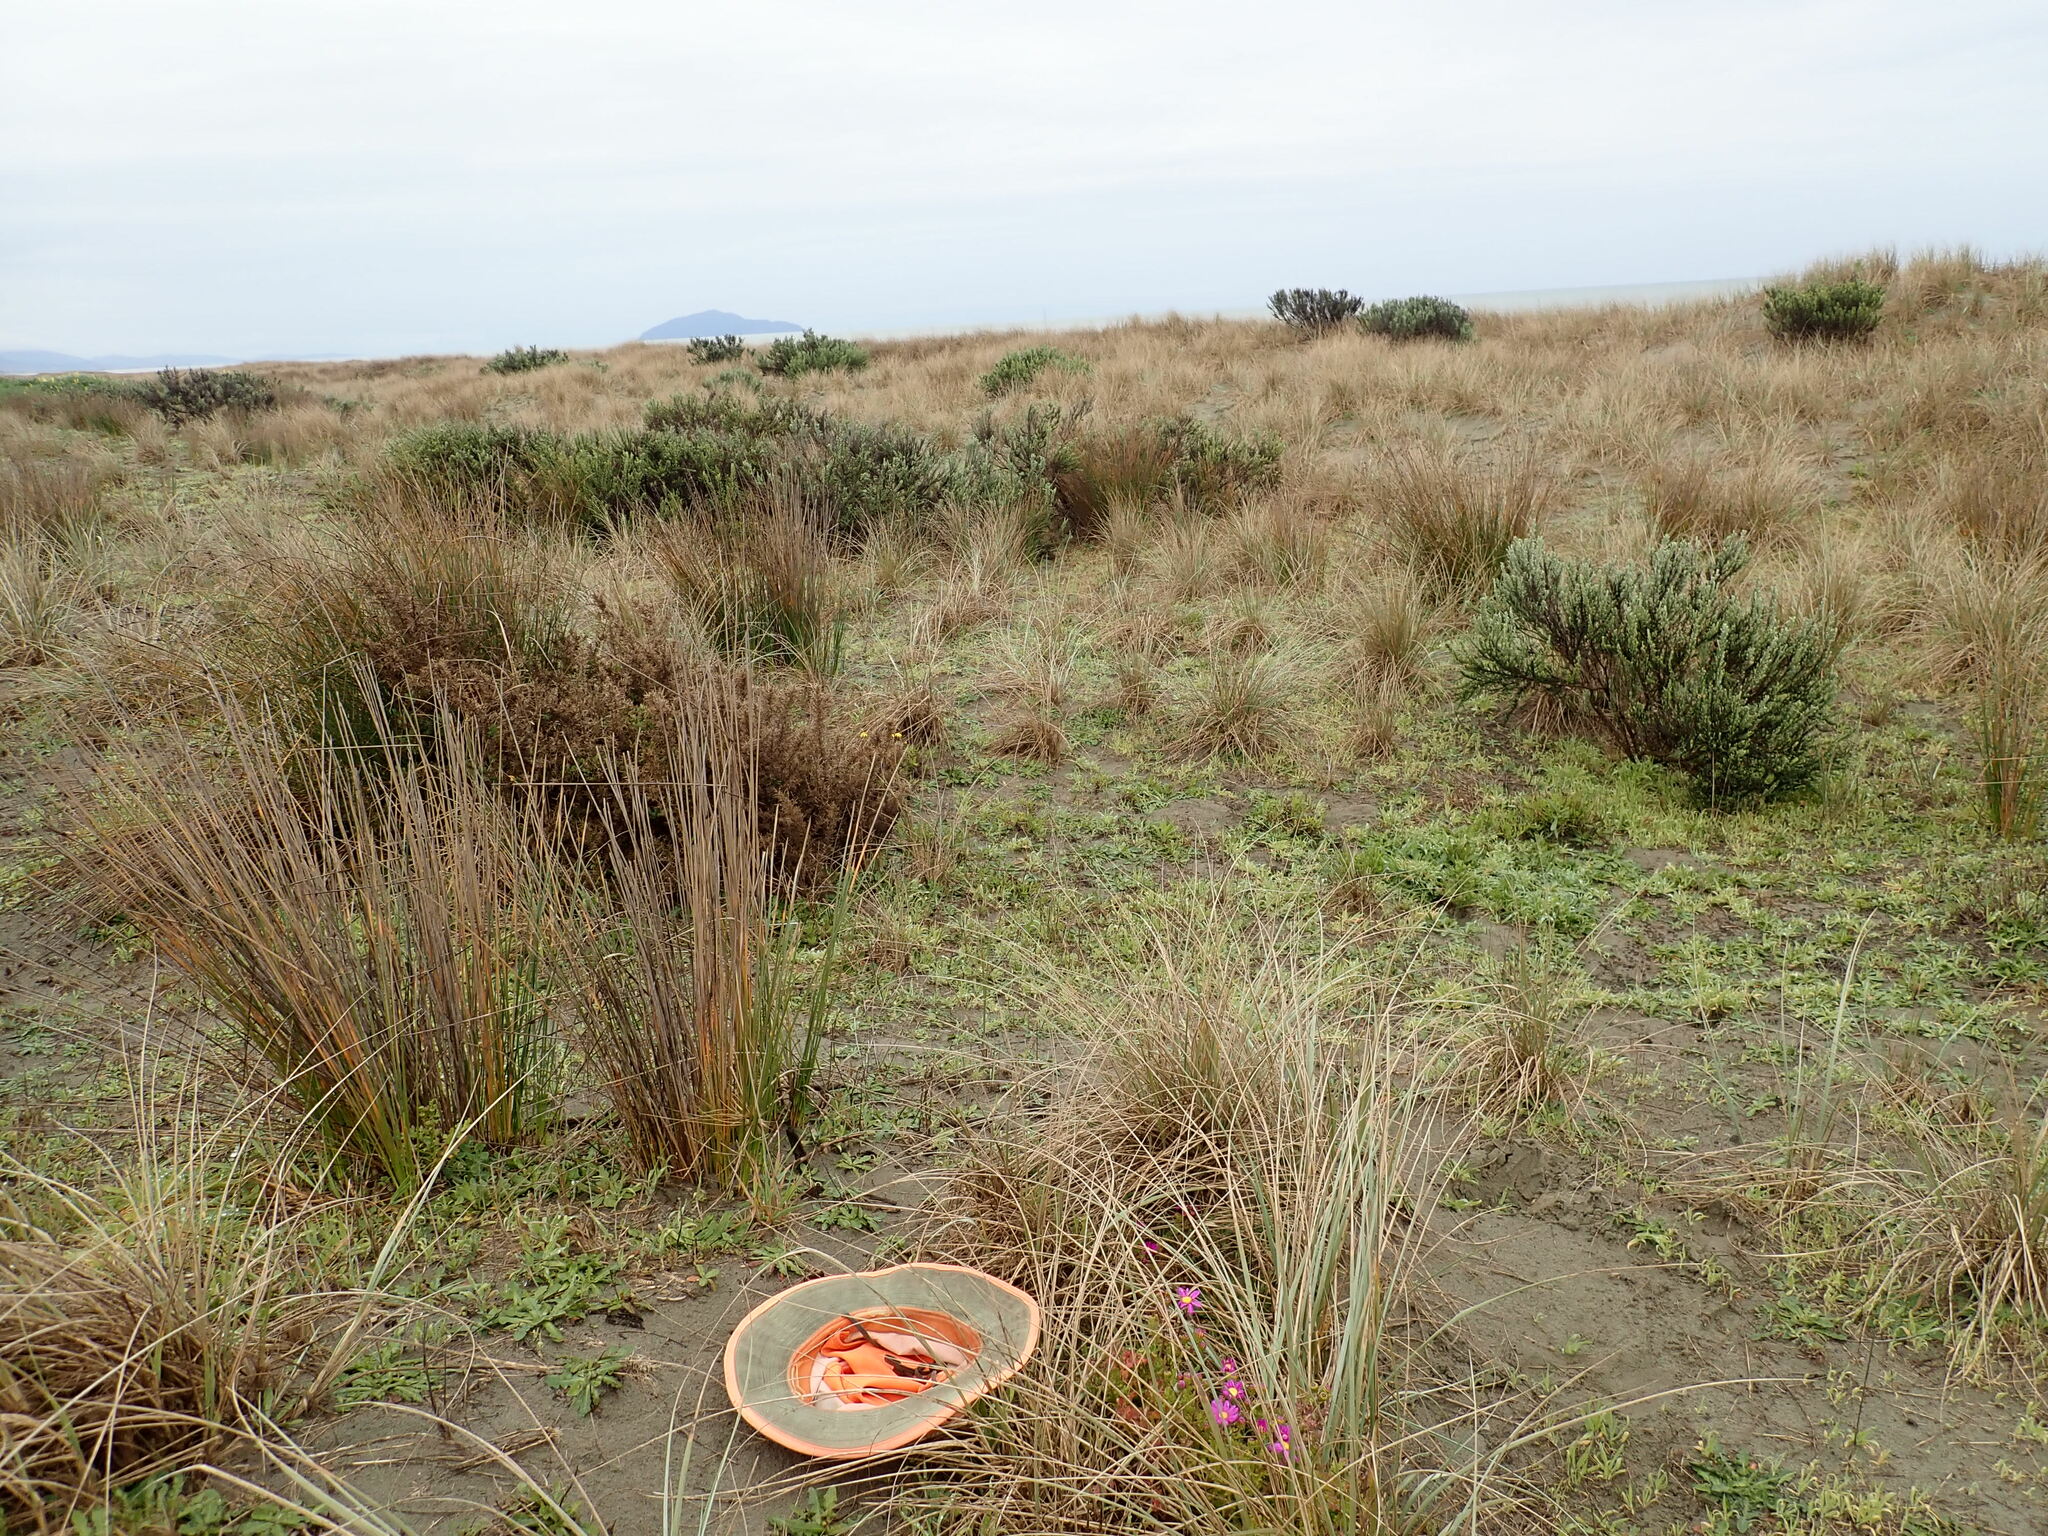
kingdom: Plantae
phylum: Tracheophyta
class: Magnoliopsida
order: Asterales
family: Asteraceae
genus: Senecio
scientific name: Senecio elegans
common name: Purple groundsel
